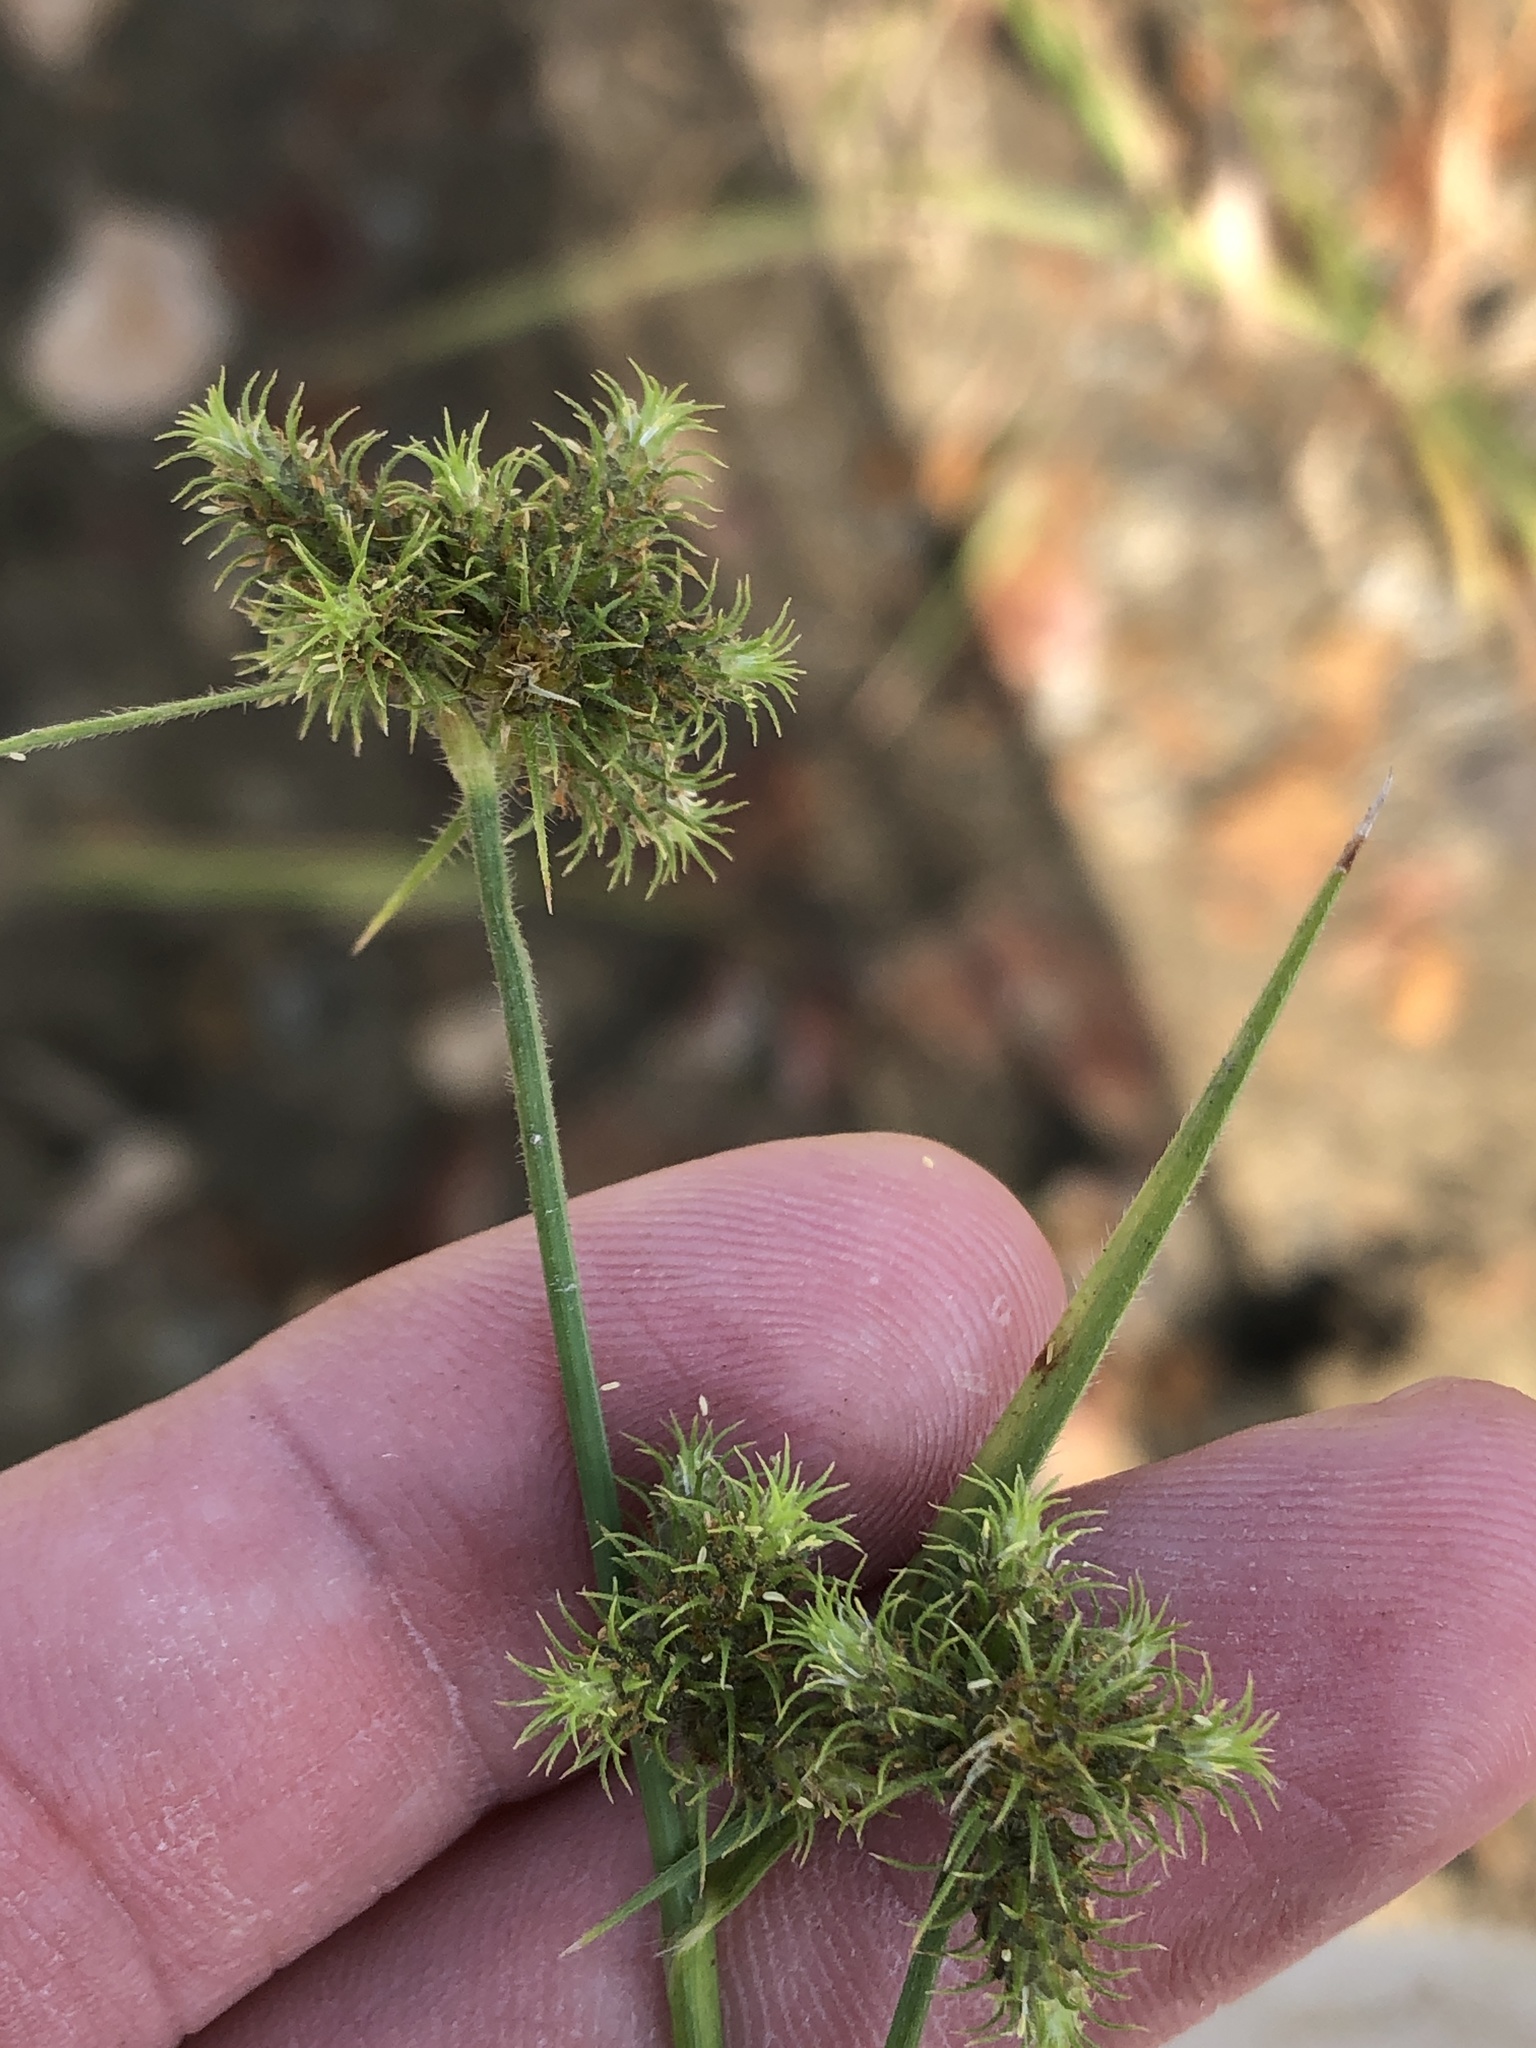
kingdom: Plantae
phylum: Tracheophyta
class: Liliopsida
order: Poales
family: Cyperaceae
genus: Fuirena
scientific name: Fuirena simplex
